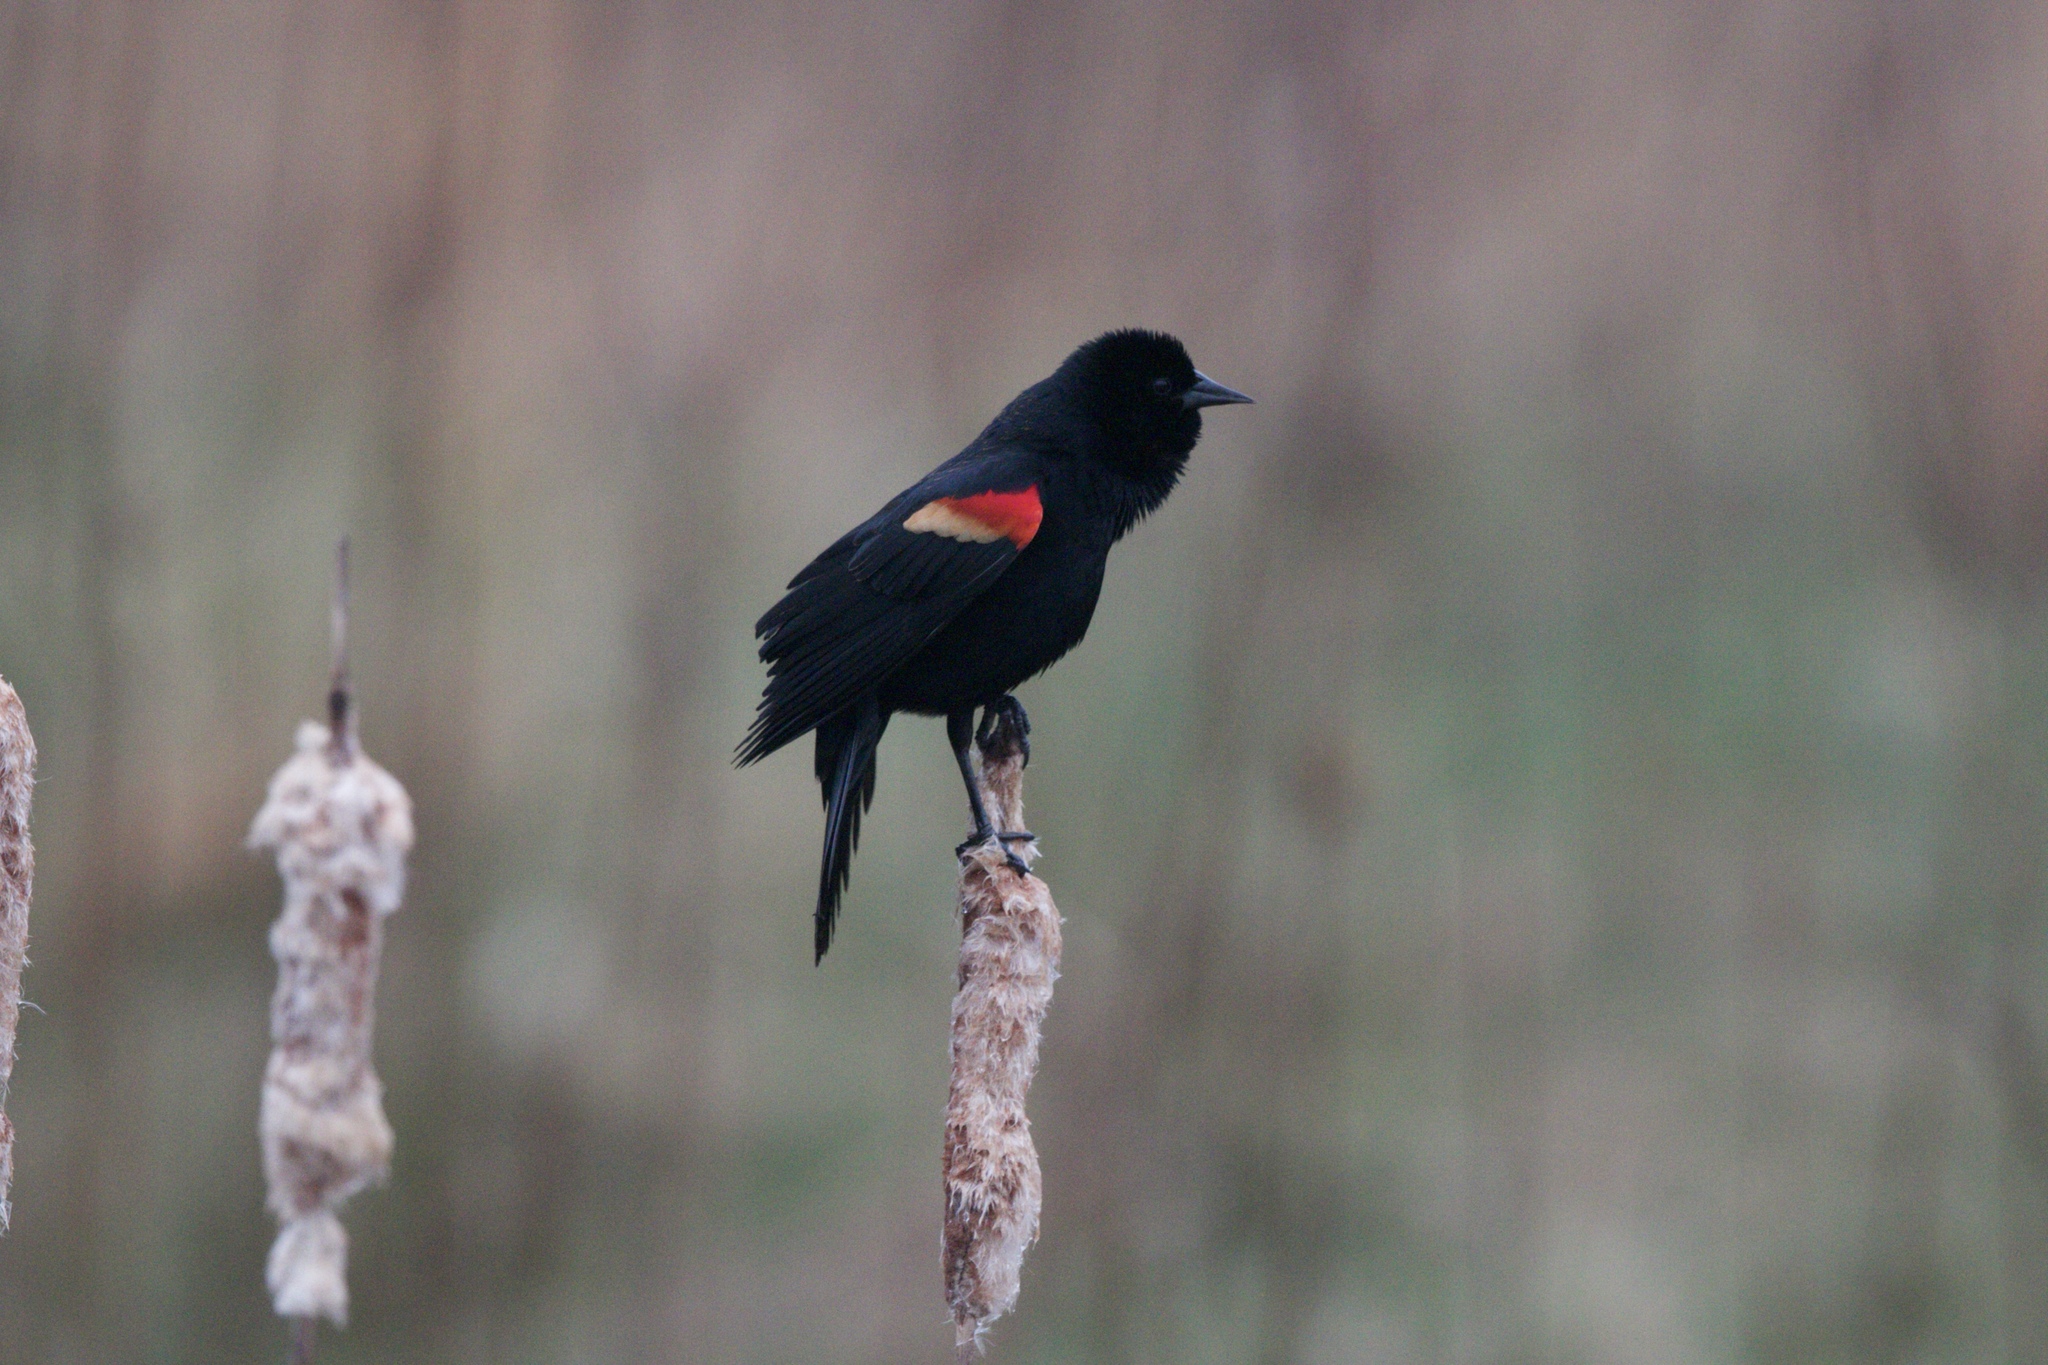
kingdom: Animalia
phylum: Chordata
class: Aves
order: Passeriformes
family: Icteridae
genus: Agelaius
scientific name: Agelaius phoeniceus
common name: Red-winged blackbird
